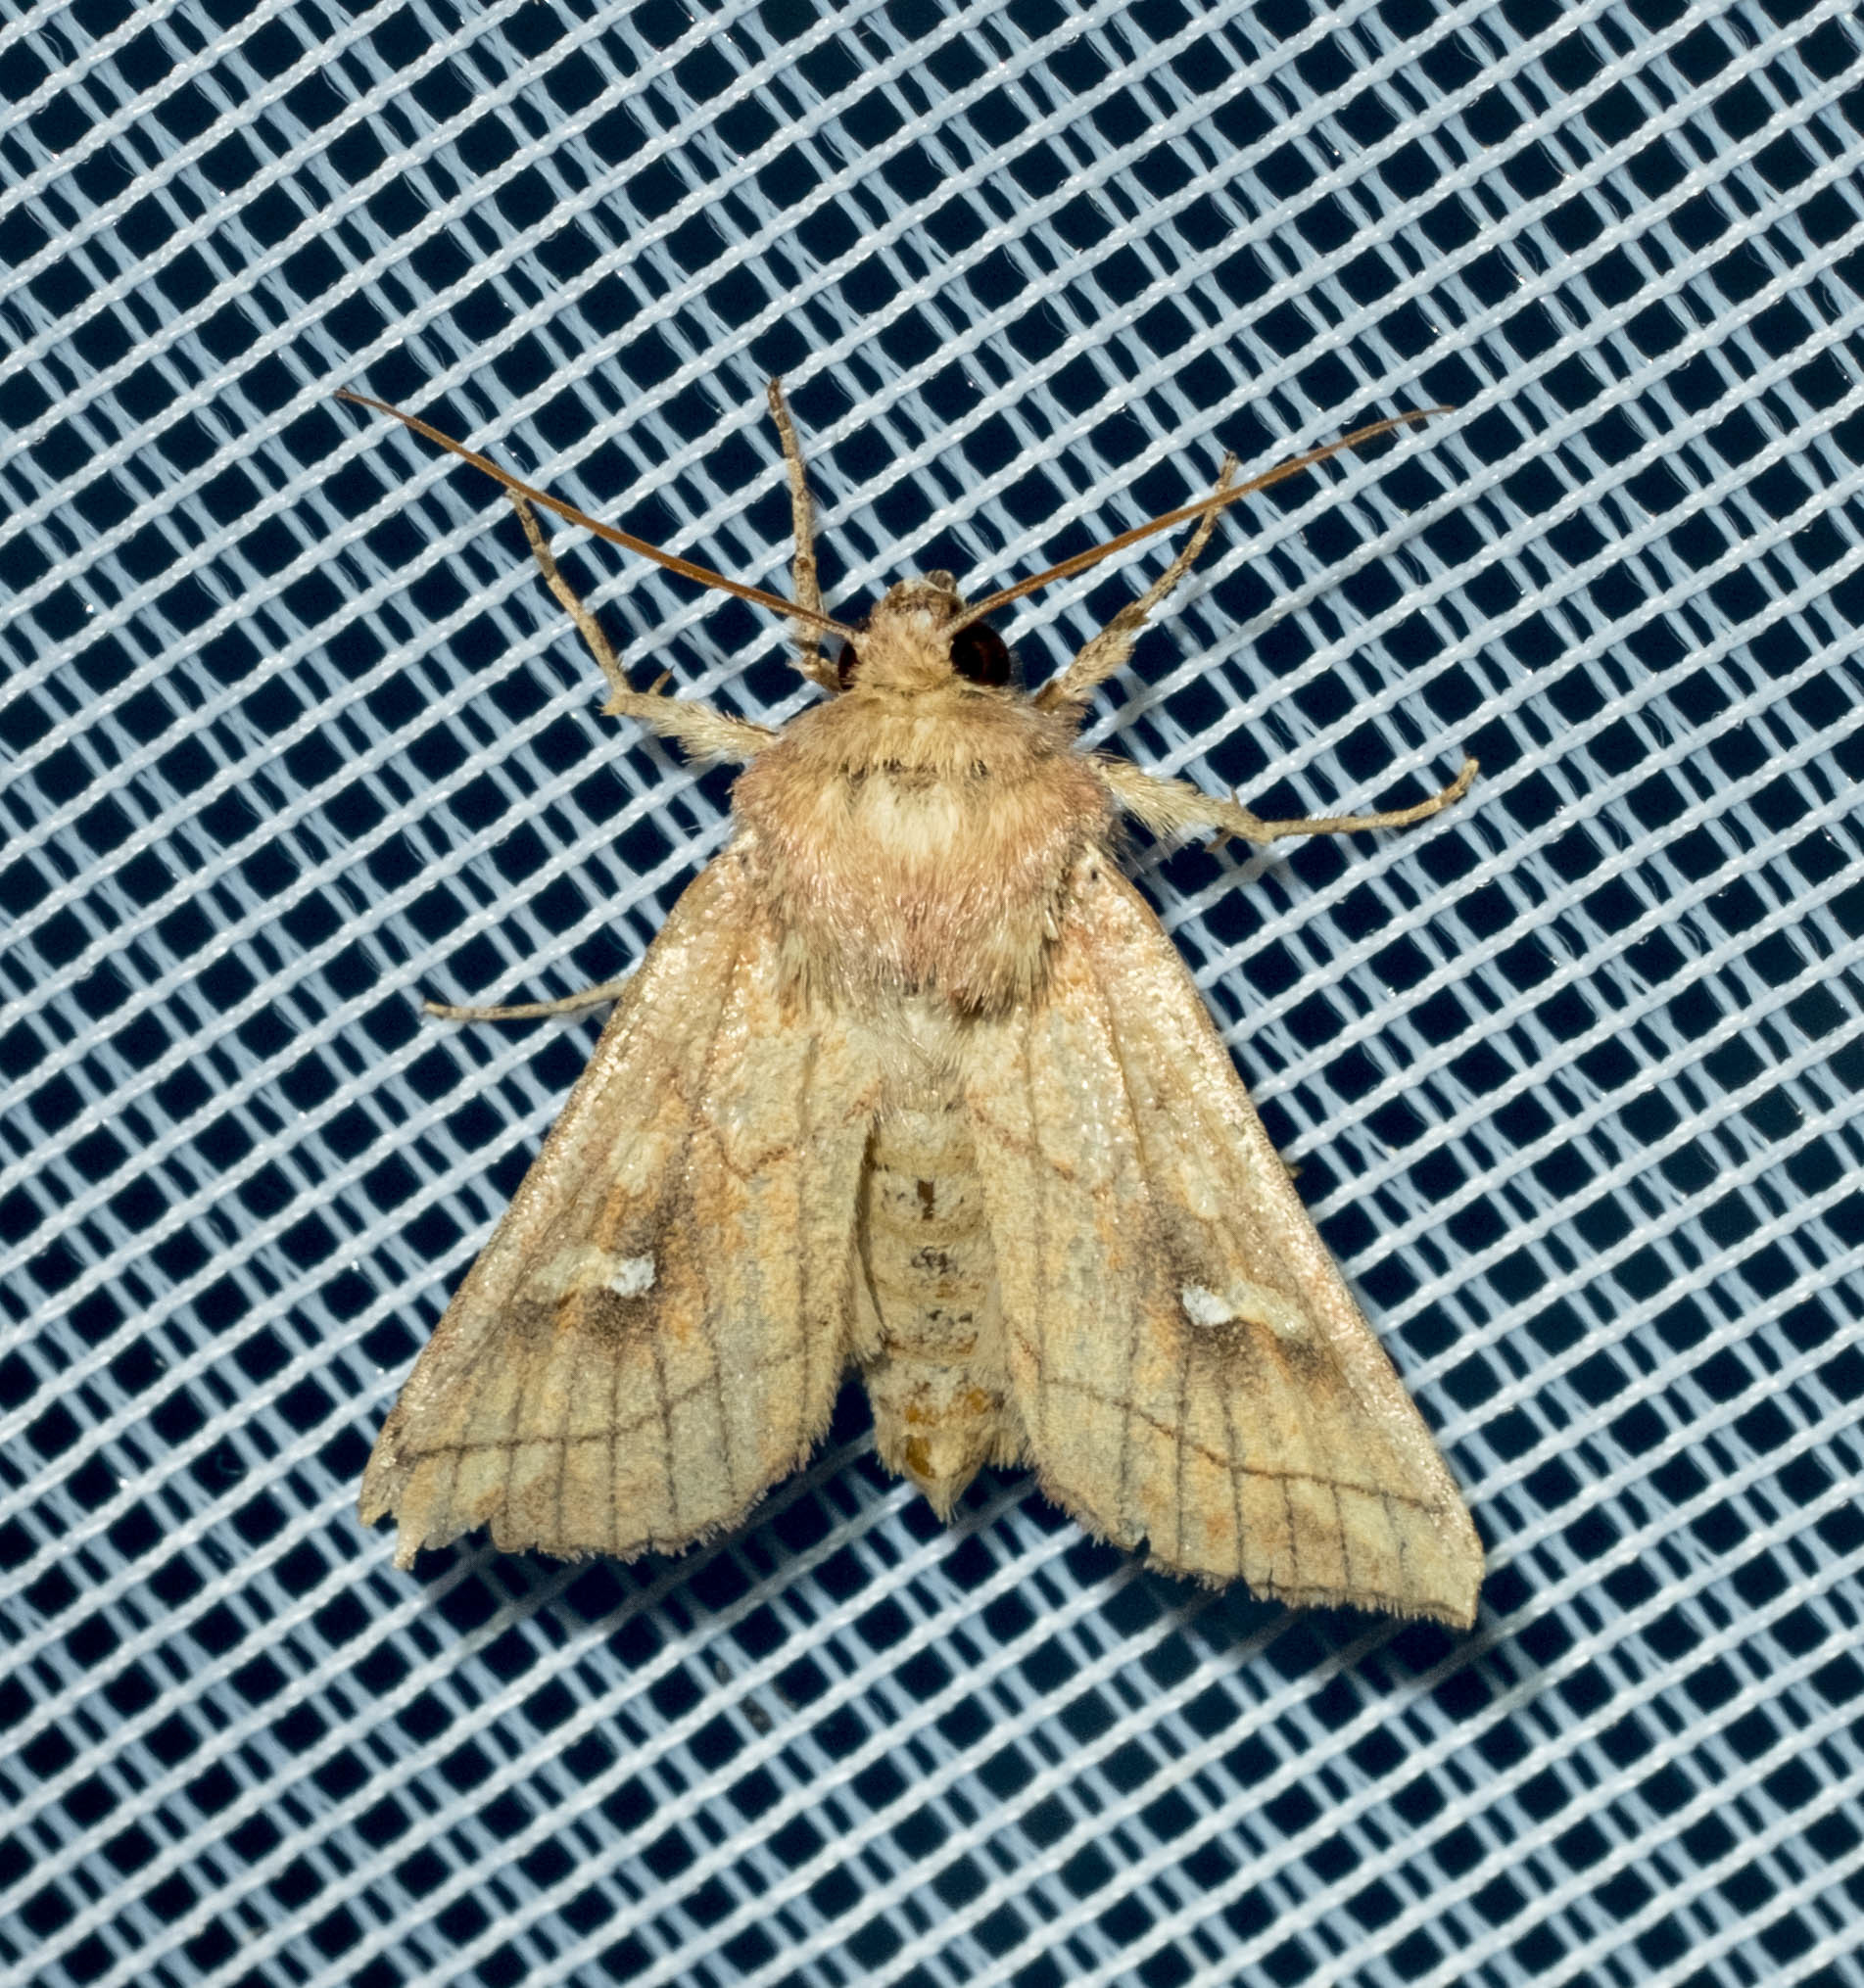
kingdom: Animalia
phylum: Arthropoda
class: Insecta
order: Lepidoptera
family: Noctuidae
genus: Mythimna
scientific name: Mythimna conigera
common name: Brown-line bright-eye
